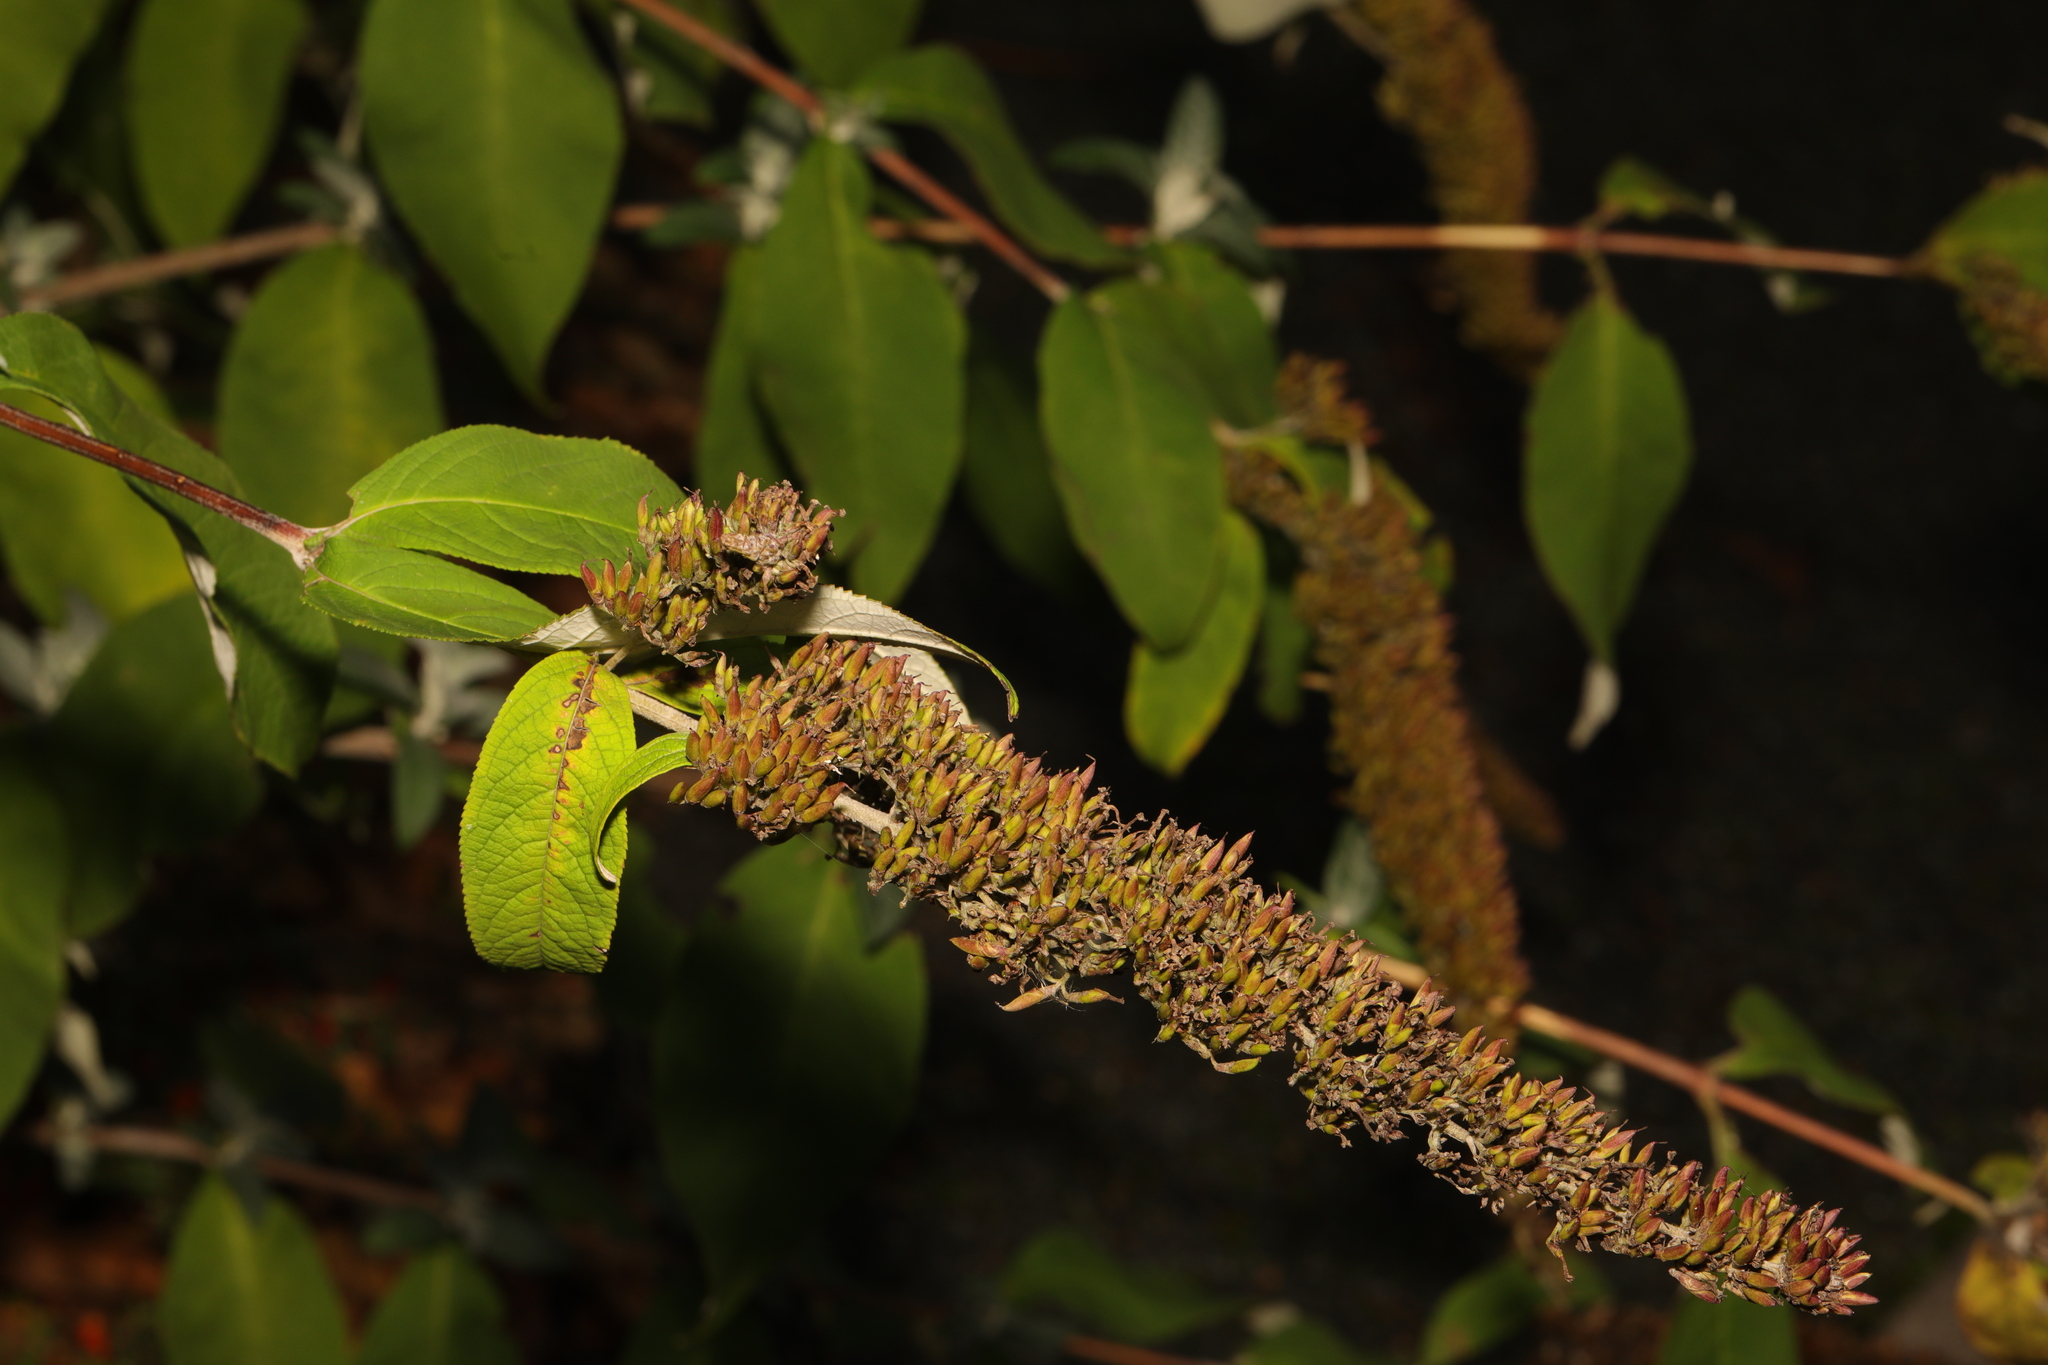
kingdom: Plantae
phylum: Tracheophyta
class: Magnoliopsida
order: Lamiales
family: Scrophulariaceae
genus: Buddleja
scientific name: Buddleja davidii
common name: Butterfly-bush
